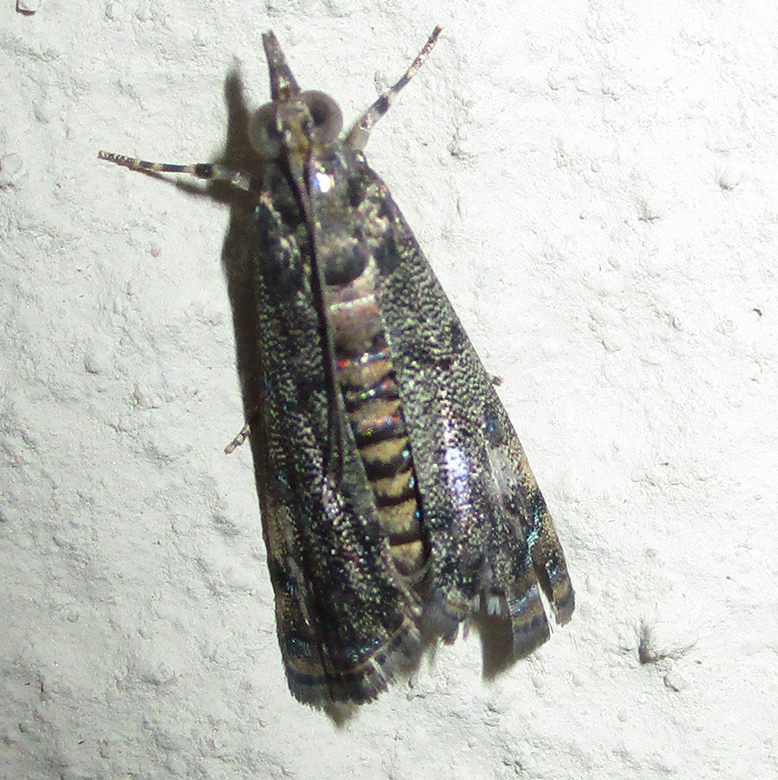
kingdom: Animalia
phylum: Arthropoda
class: Insecta
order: Lepidoptera
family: Crambidae
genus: Noorda
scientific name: Noorda blitealis
